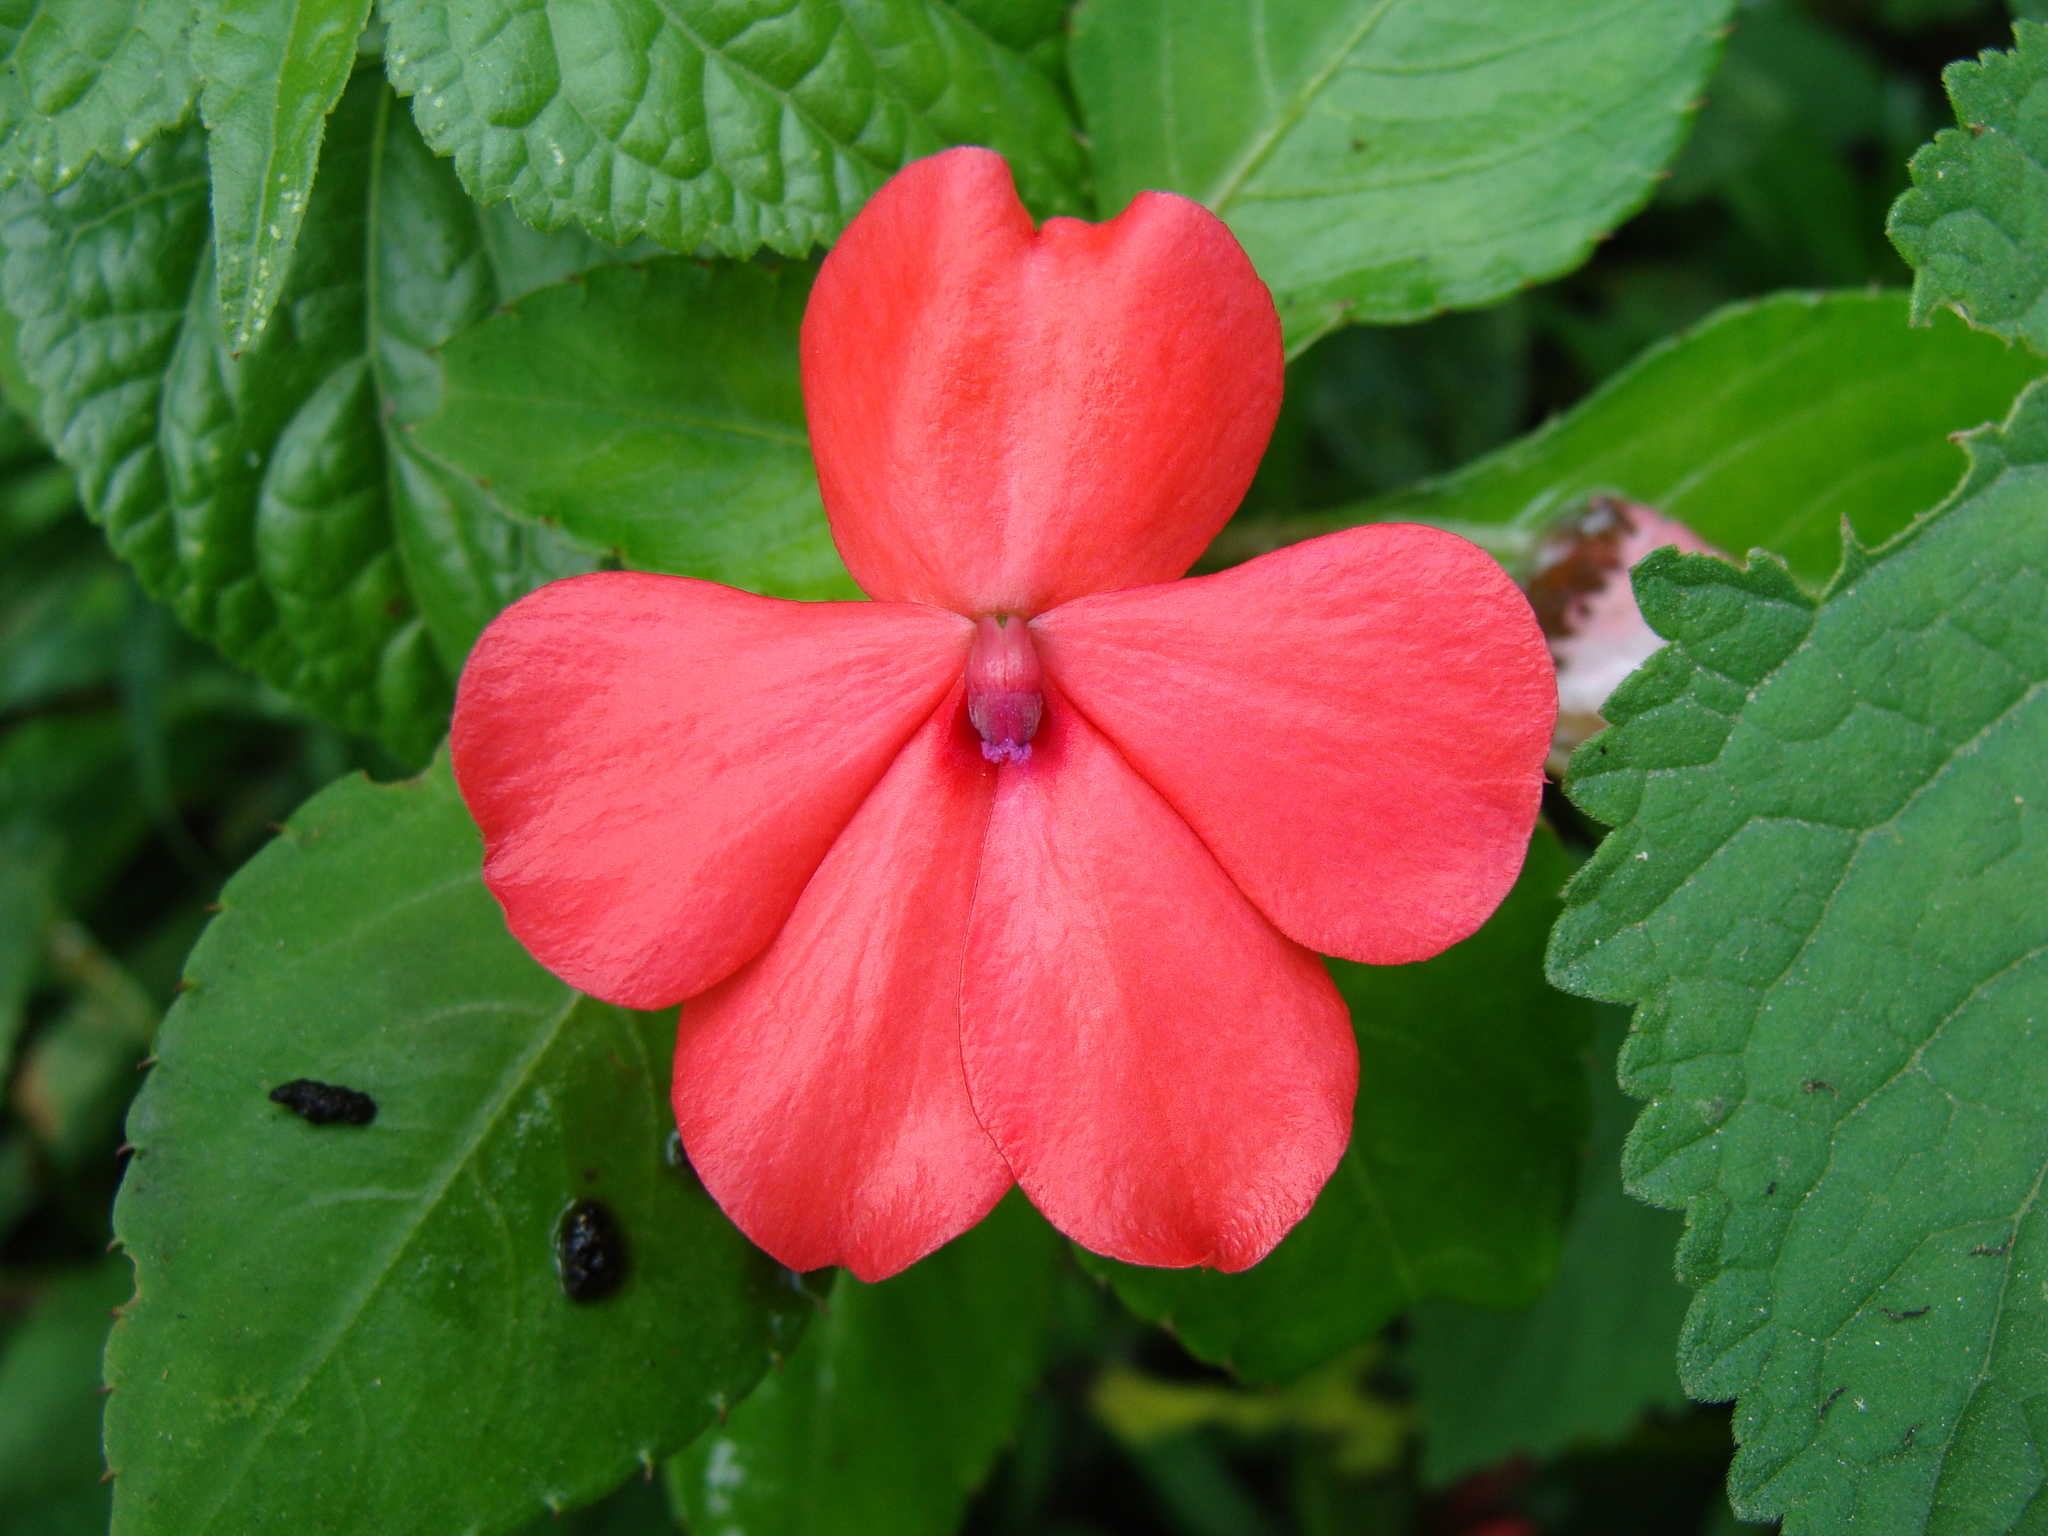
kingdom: Plantae
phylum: Tracheophyta
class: Magnoliopsida
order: Ericales
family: Balsaminaceae
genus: Impatiens
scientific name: Impatiens walleriana
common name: Buzzy lizzy
